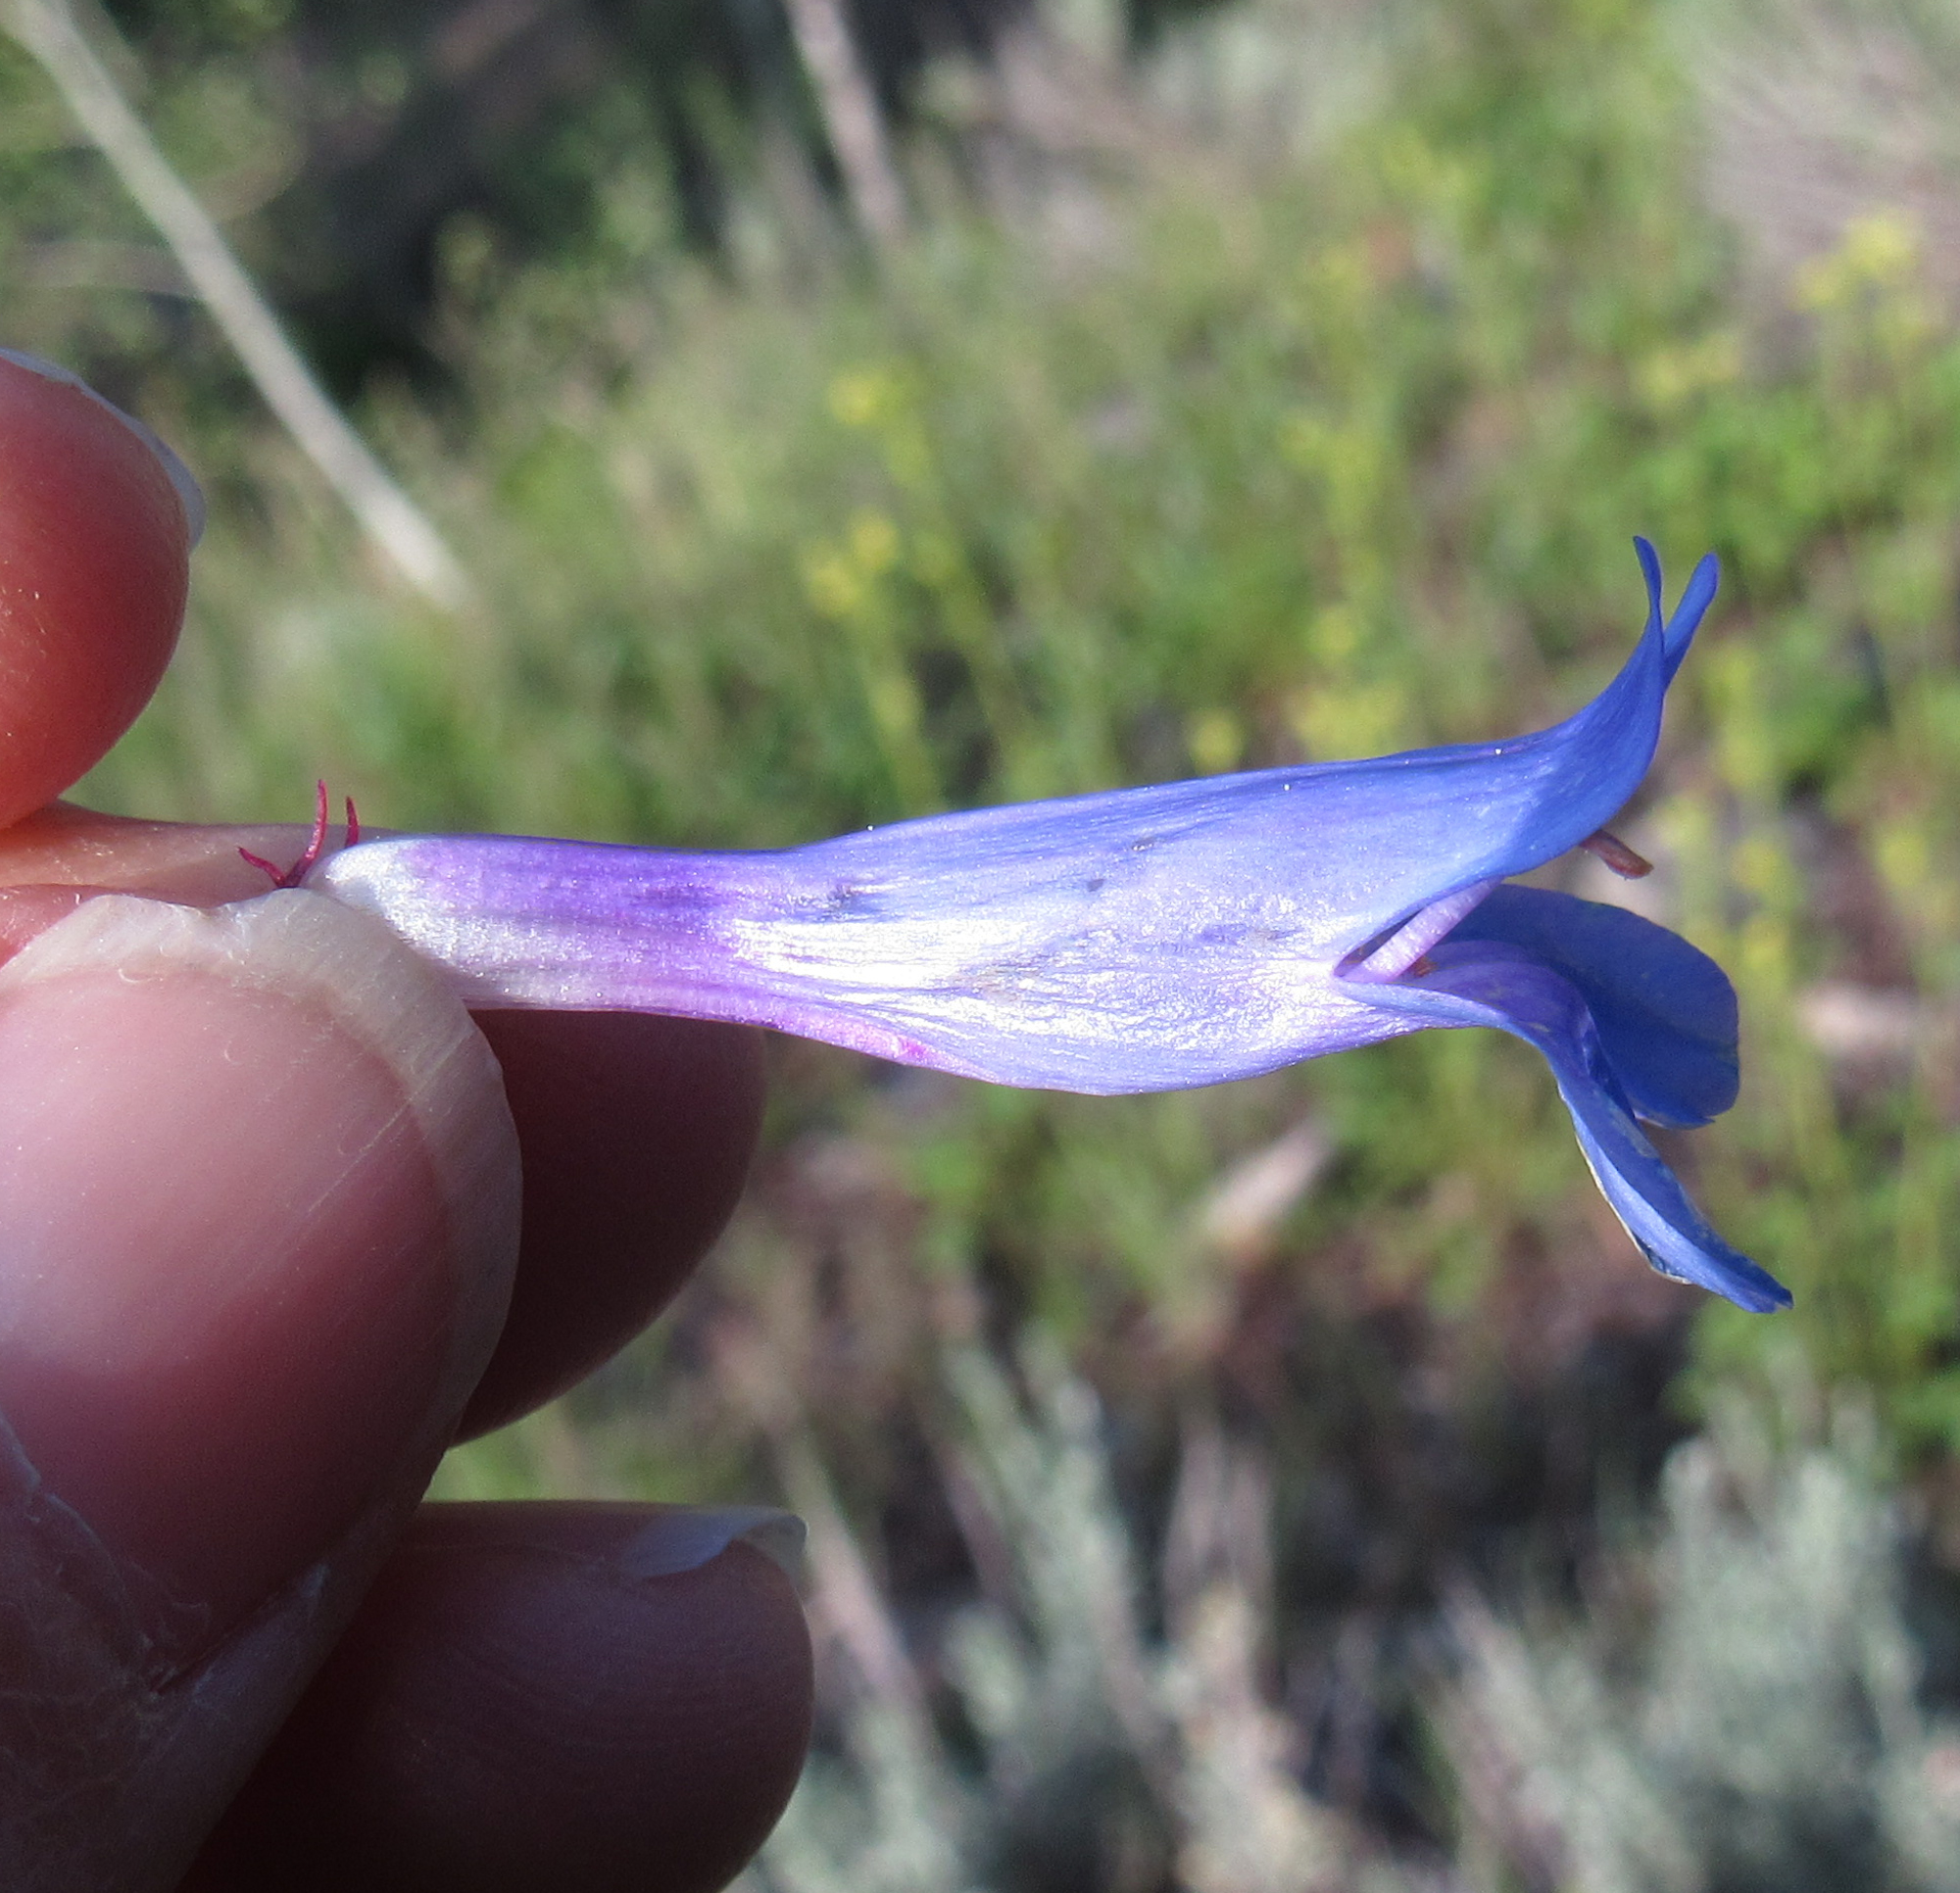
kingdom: Plantae
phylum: Tracheophyta
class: Magnoliopsida
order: Lamiales
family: Plantaginaceae
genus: Penstemon
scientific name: Penstemon cyaneus
